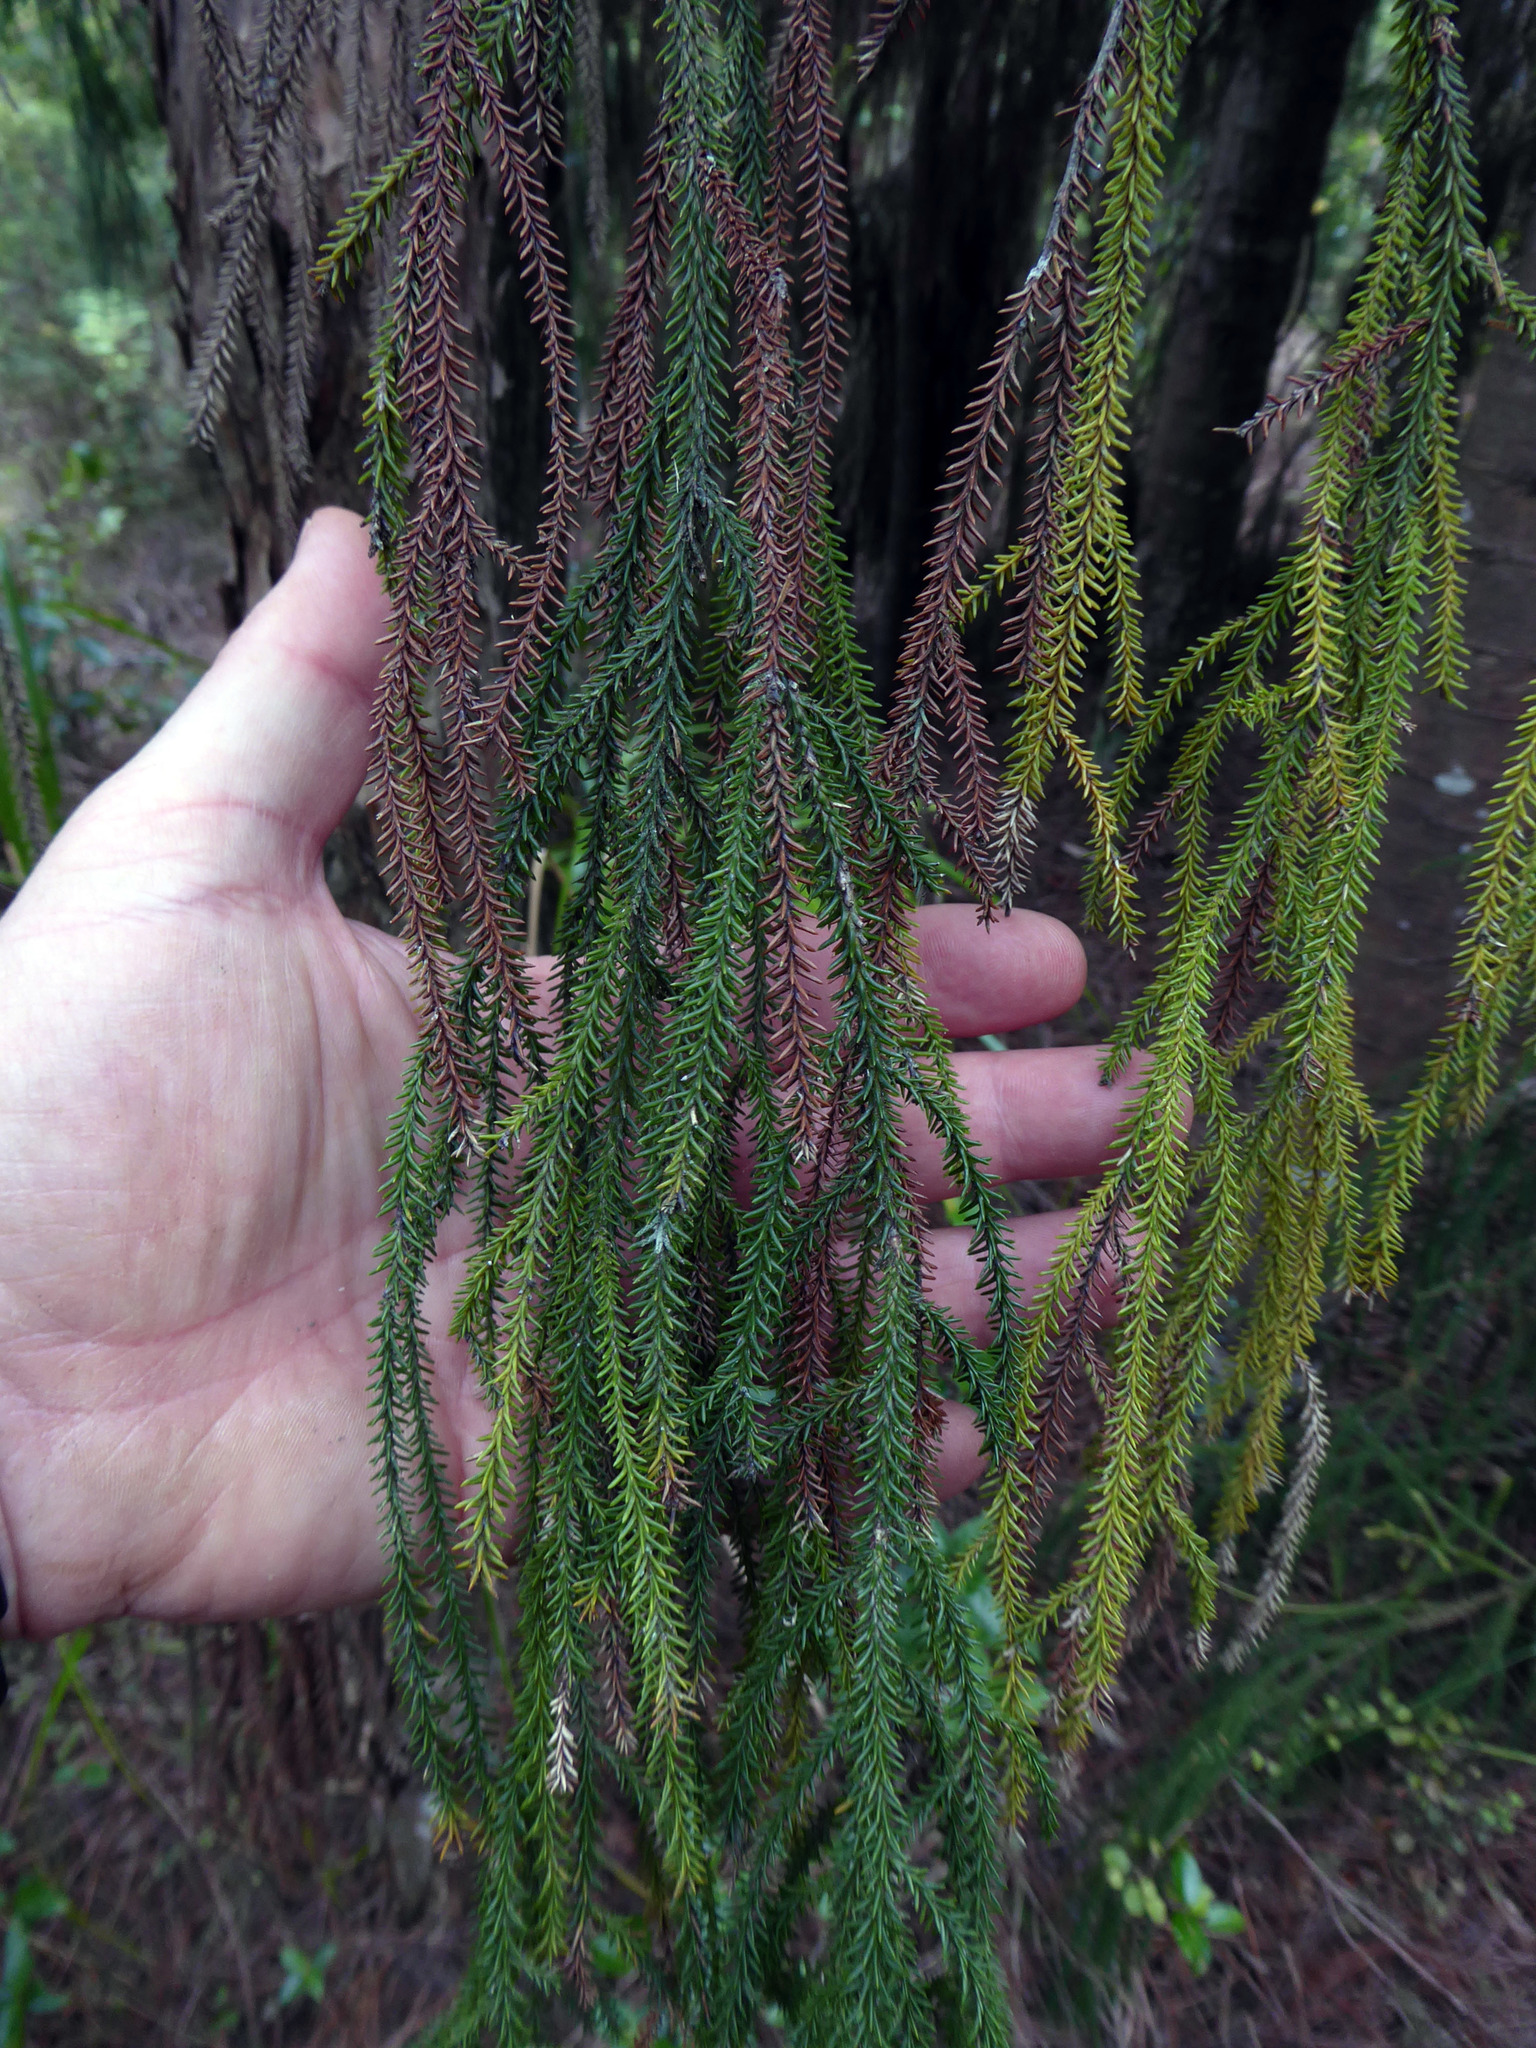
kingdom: Plantae
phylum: Tracheophyta
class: Pinopsida
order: Pinales
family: Podocarpaceae
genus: Dacrydium
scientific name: Dacrydium cupressinum
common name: Red pine
